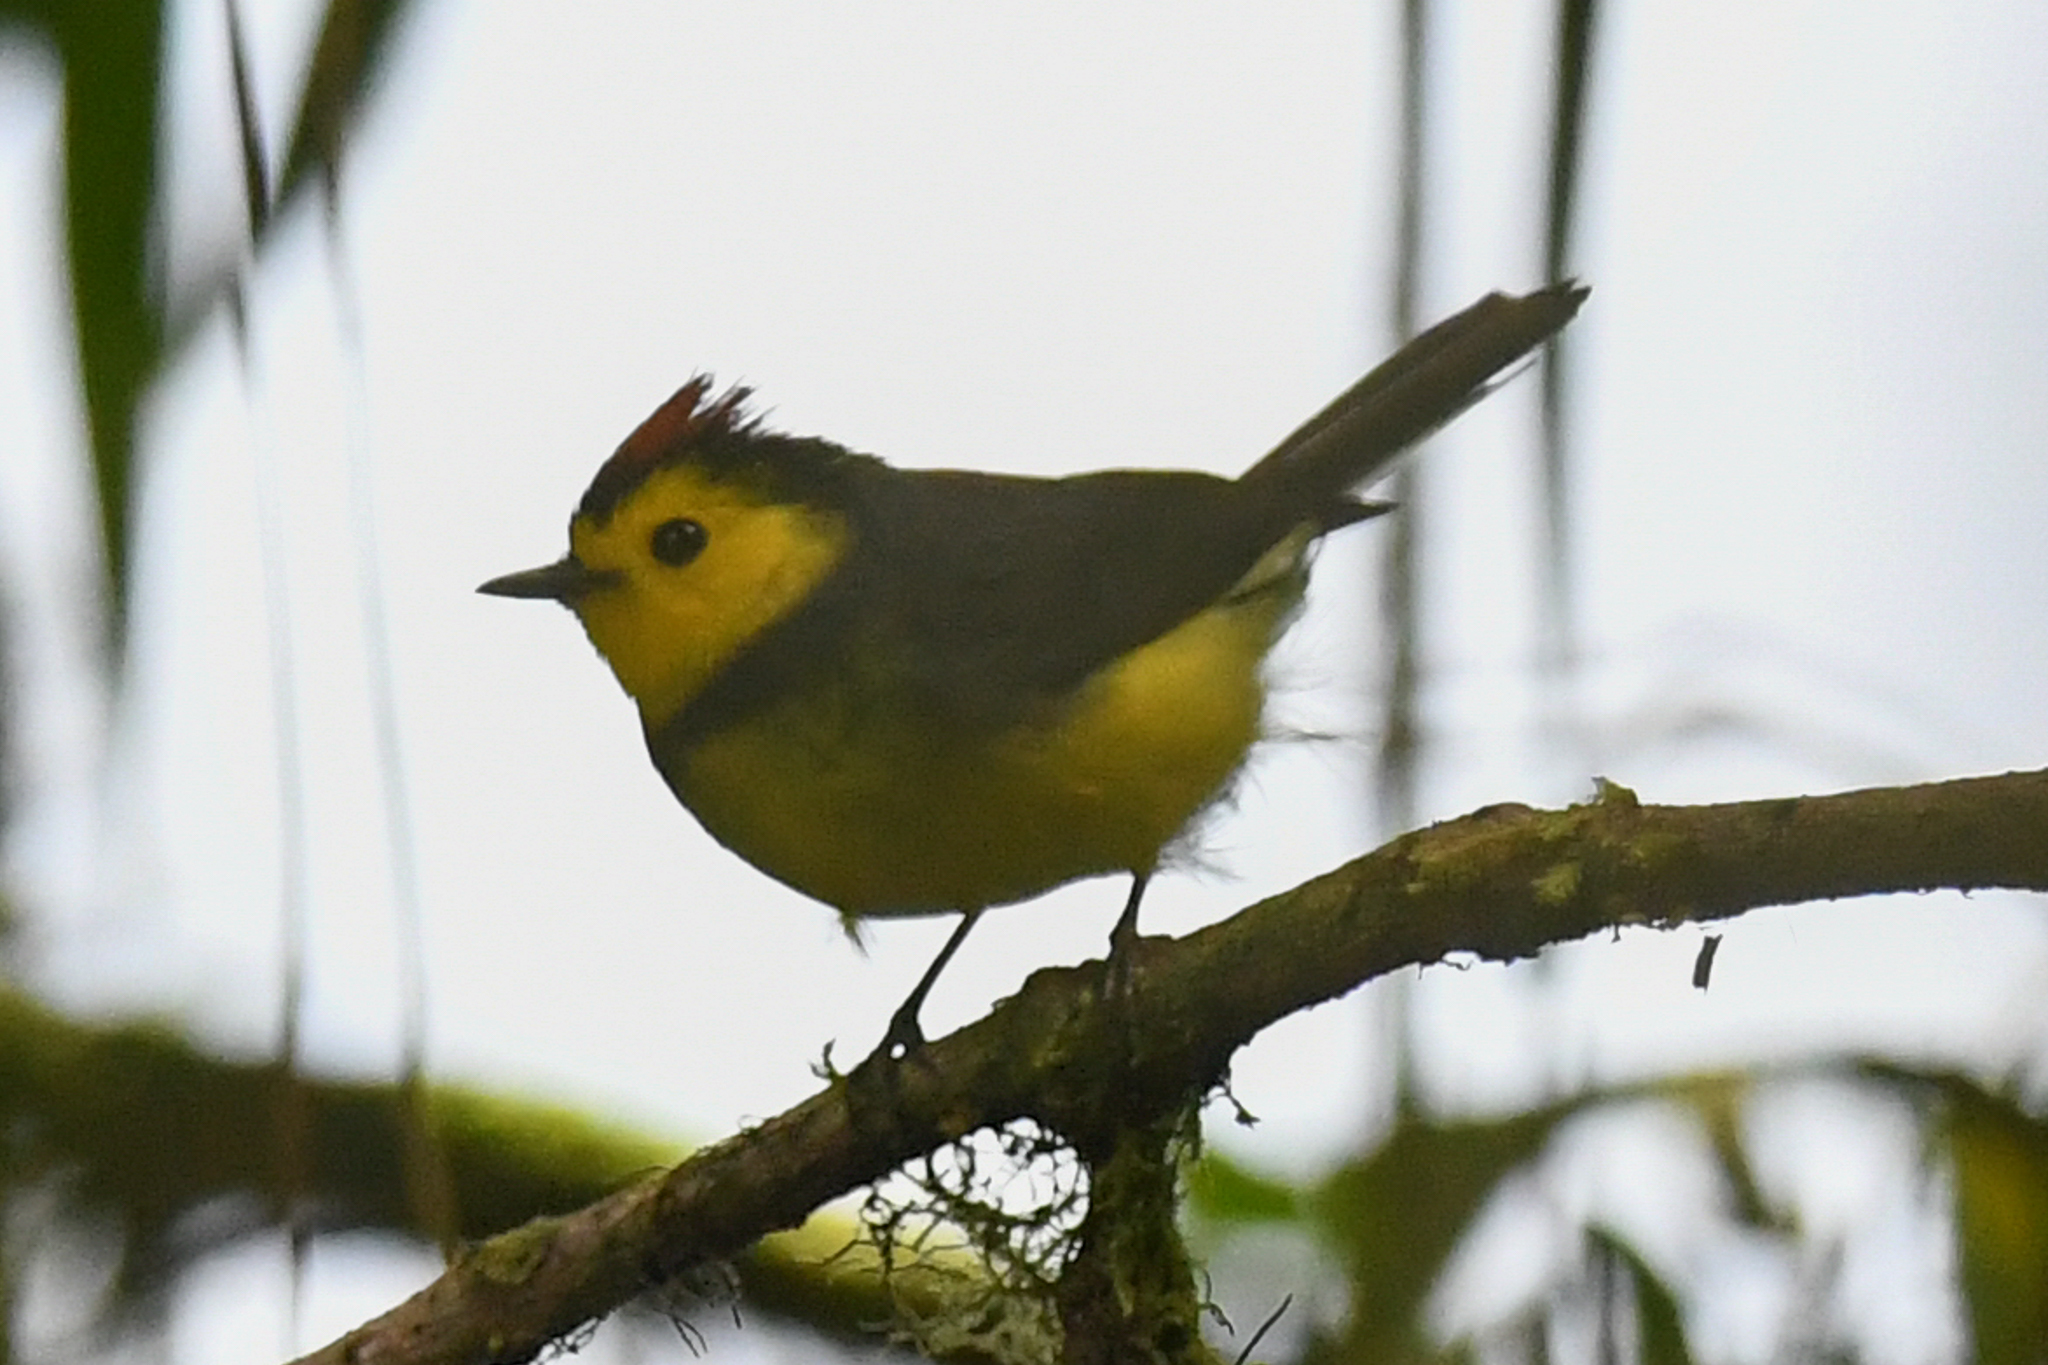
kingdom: Animalia
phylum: Chordata
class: Aves
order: Passeriformes
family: Parulidae
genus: Myioborus
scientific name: Myioborus torquatus
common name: Collared whitestart
